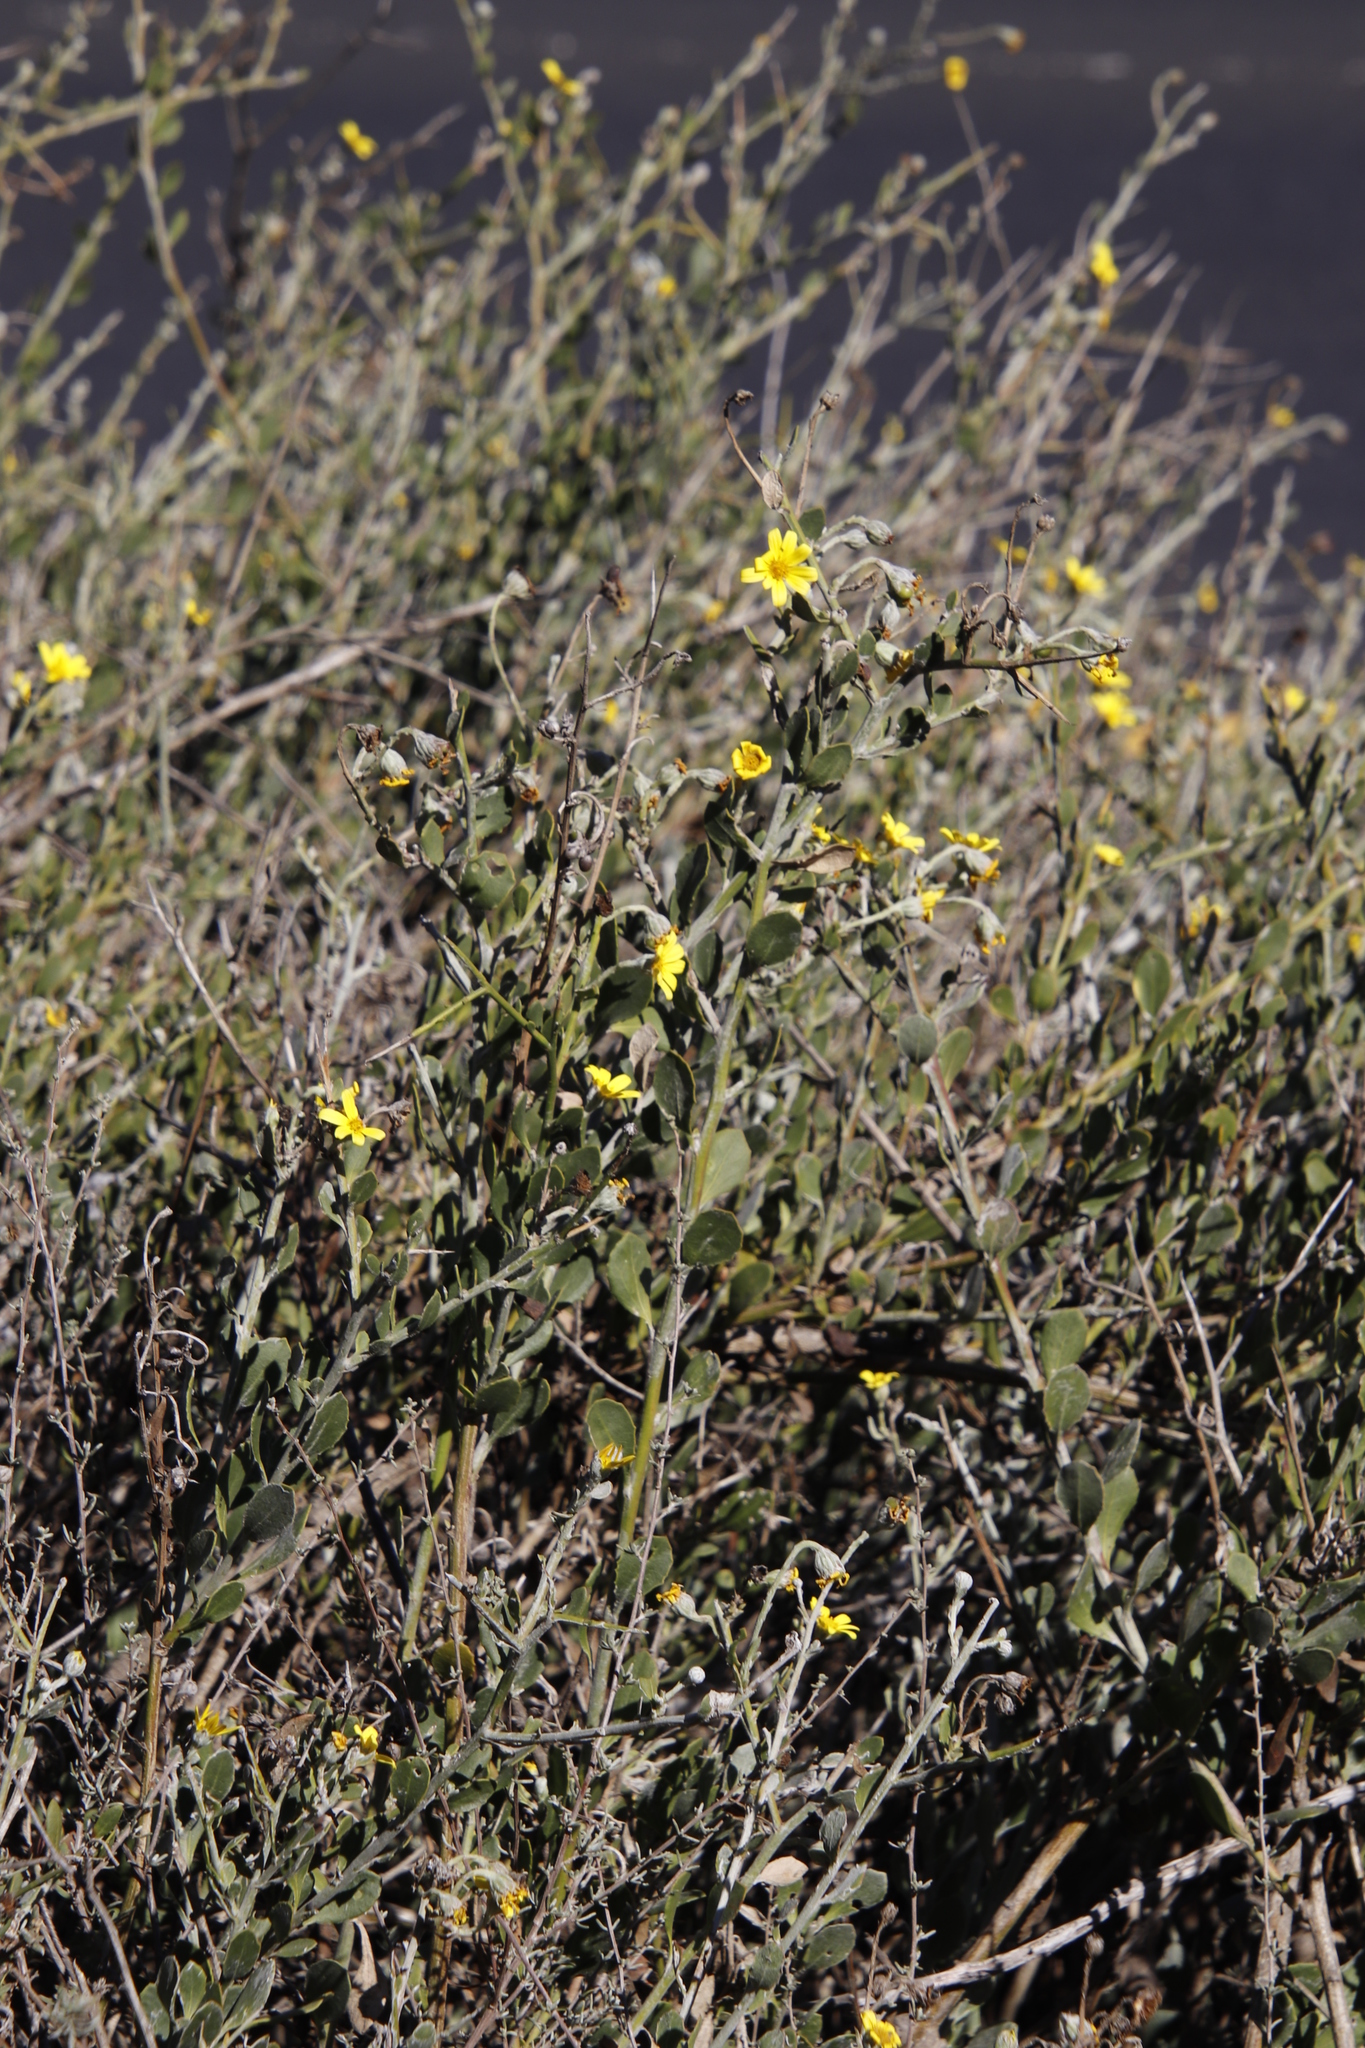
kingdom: Plantae
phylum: Tracheophyta
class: Magnoliopsida
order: Asterales
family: Asteraceae
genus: Osteospermum
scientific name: Osteospermum incanum
